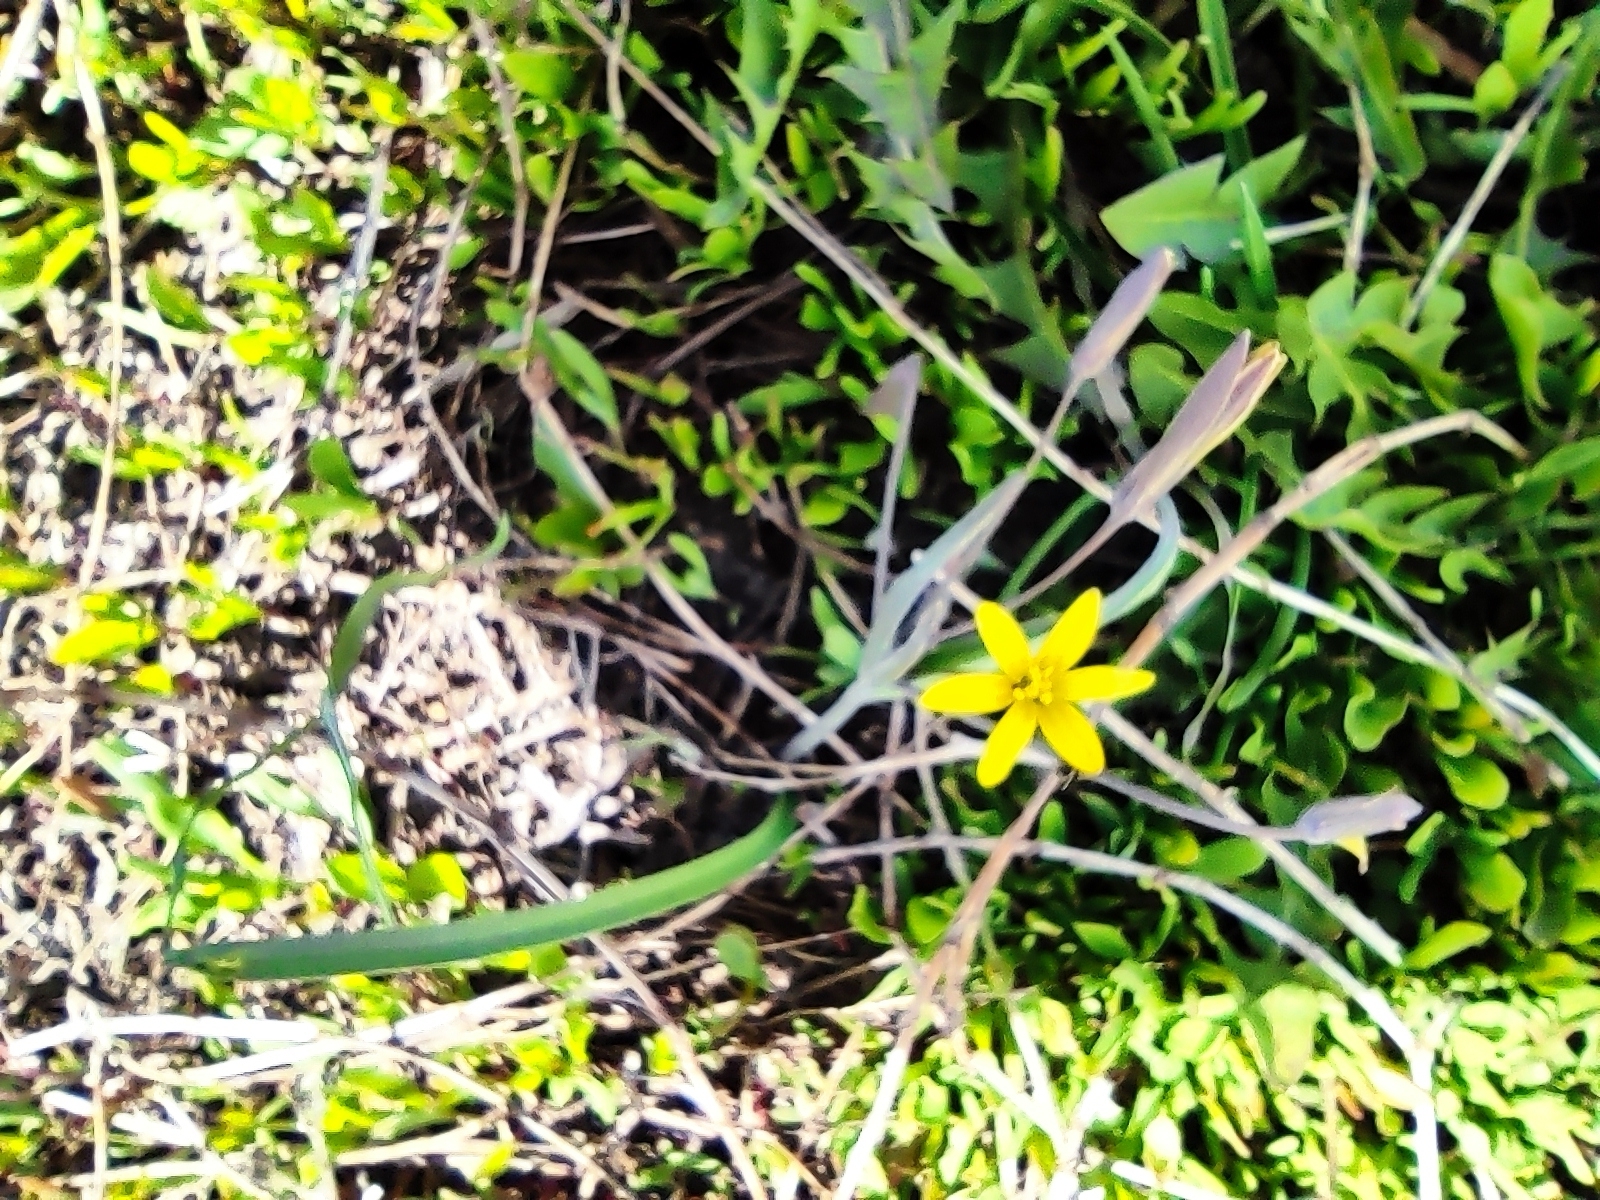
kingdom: Plantae
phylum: Tracheophyta
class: Liliopsida
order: Liliales
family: Liliaceae
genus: Gagea
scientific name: Gagea fragifera
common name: Lily
